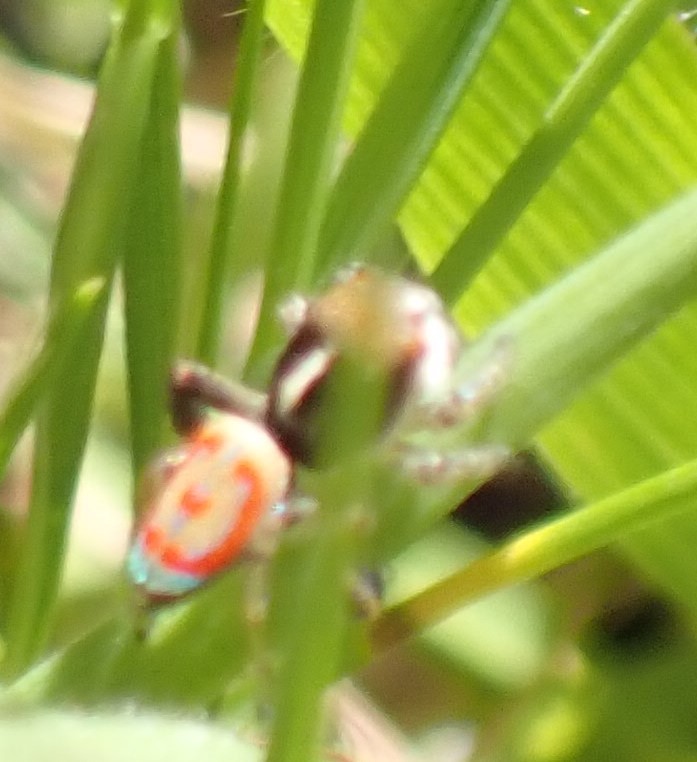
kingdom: Animalia
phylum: Arthropoda
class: Arachnida
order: Araneae
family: Salticidae
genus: Maratus
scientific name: Maratus pavonis
